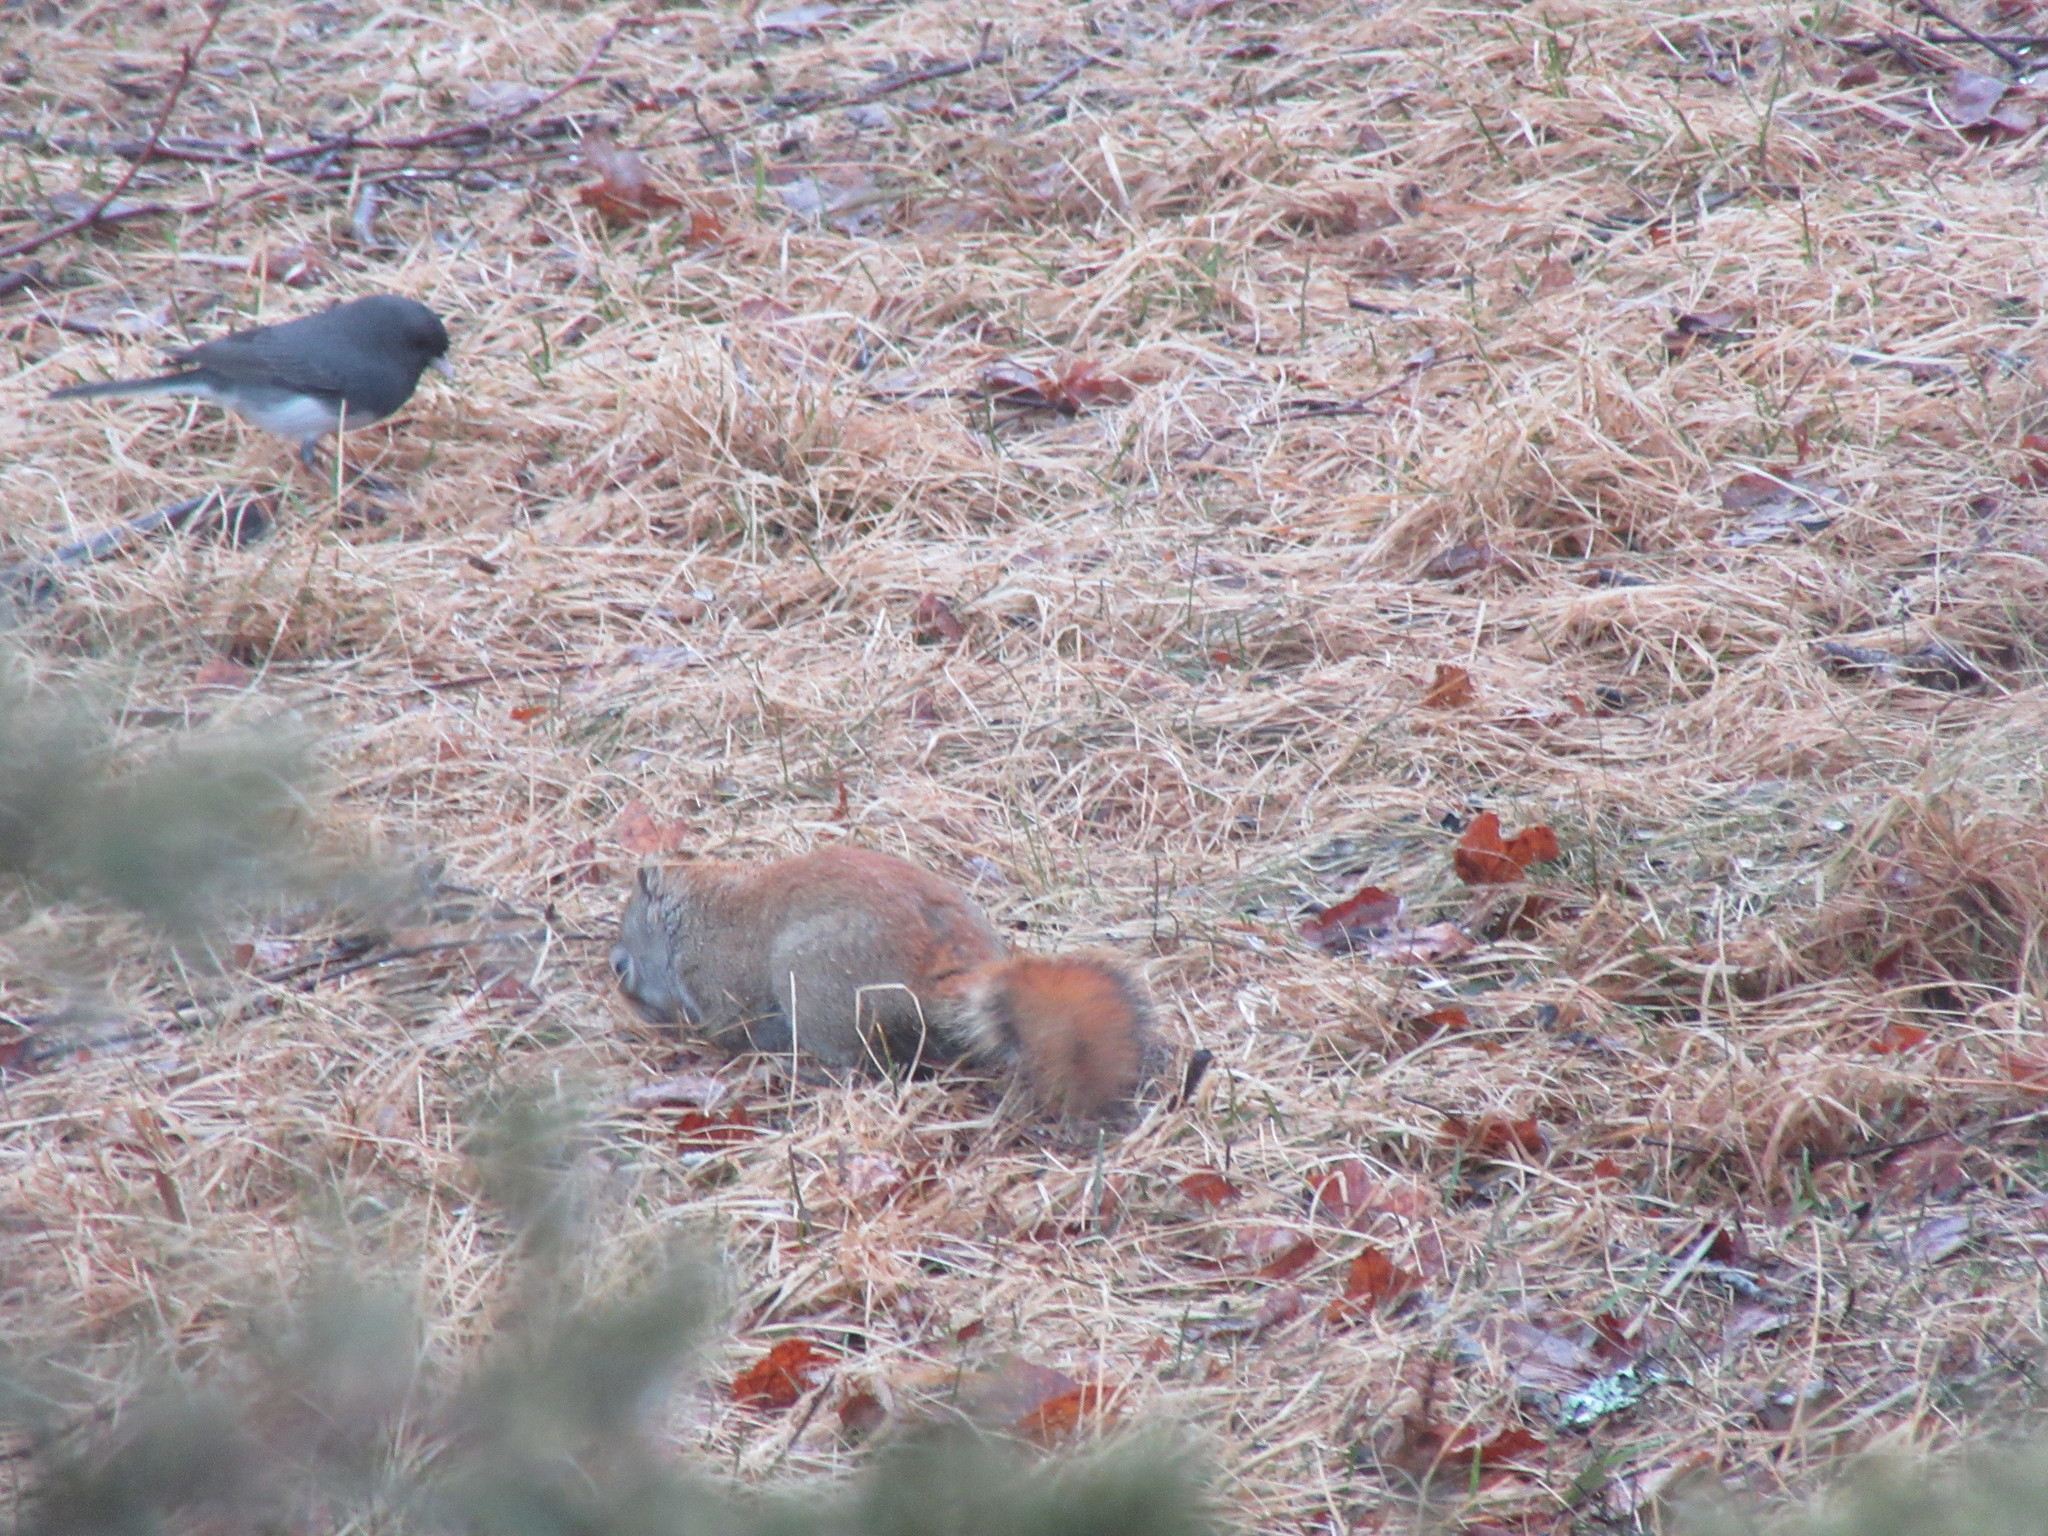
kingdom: Animalia
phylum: Chordata
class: Mammalia
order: Rodentia
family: Sciuridae
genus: Tamiasciurus
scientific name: Tamiasciurus hudsonicus
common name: Red squirrel
